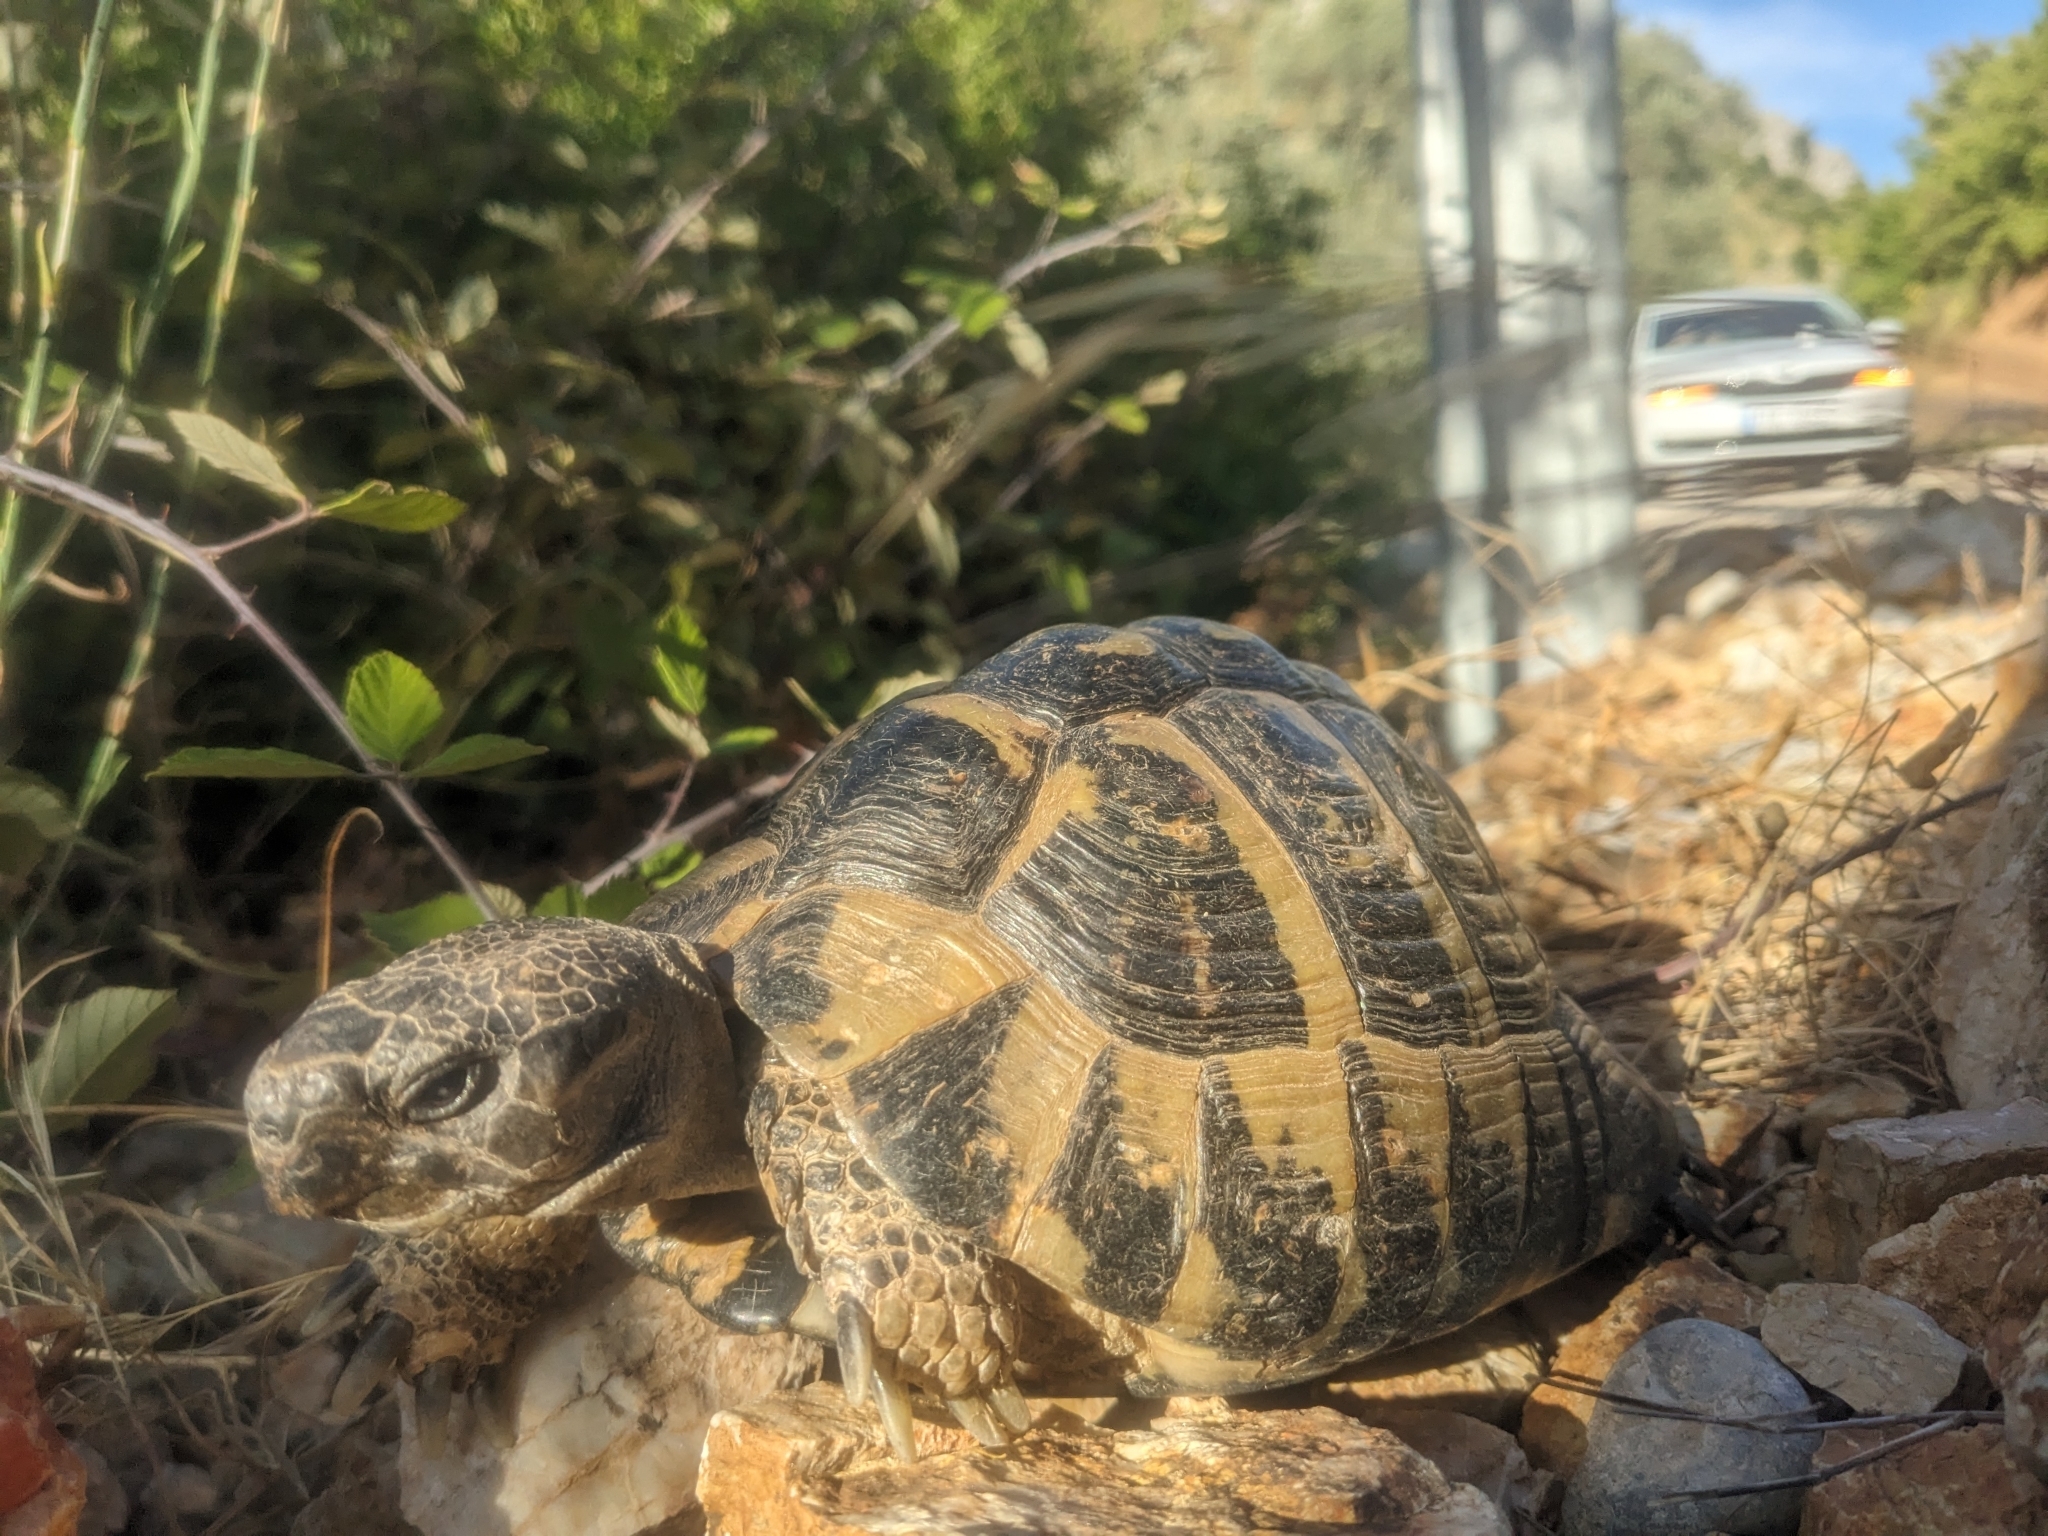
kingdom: Animalia
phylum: Chordata
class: Testudines
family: Testudinidae
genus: Testudo
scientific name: Testudo hermanni
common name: Hermann's tortoise
